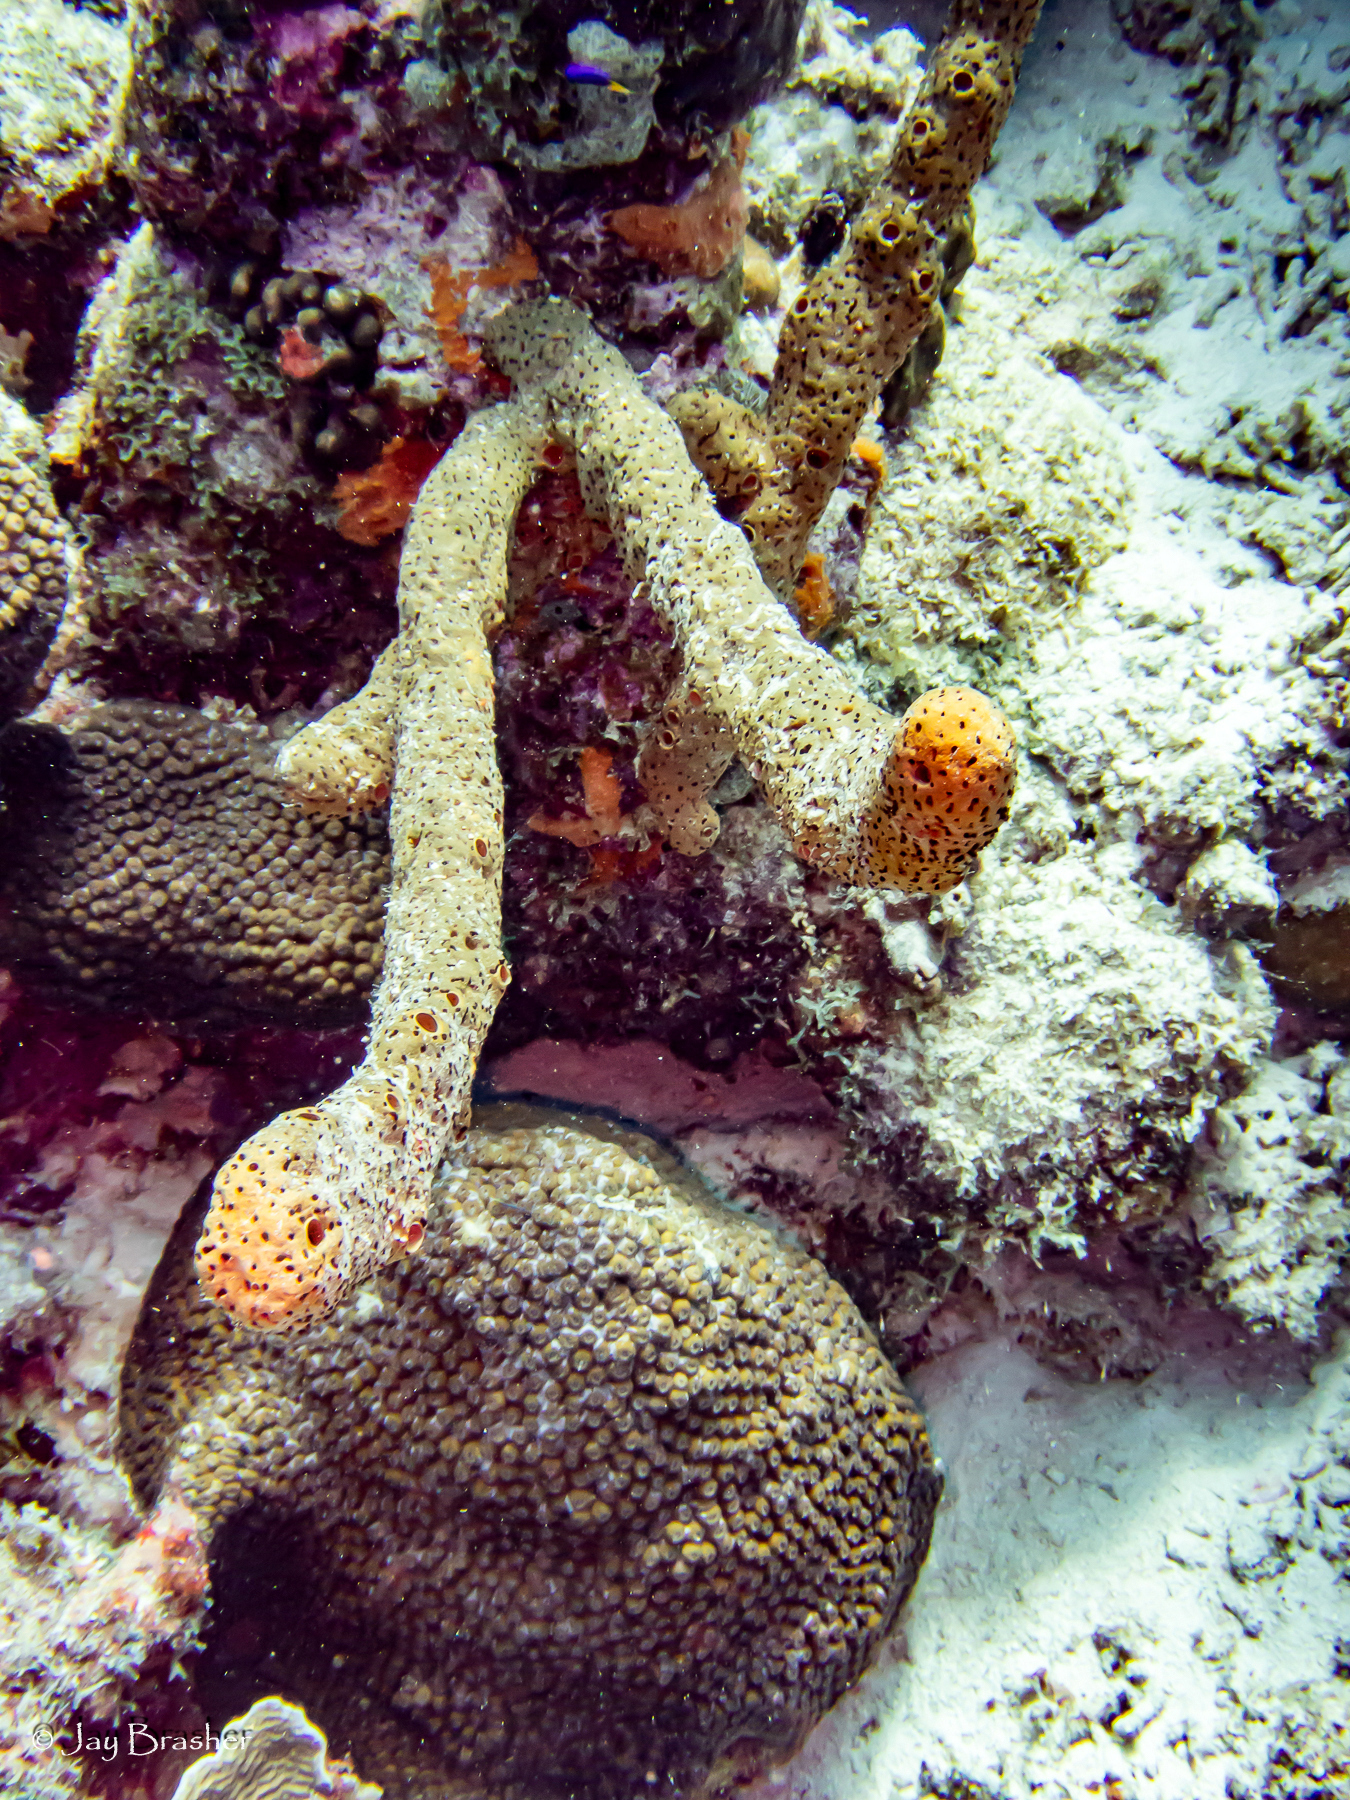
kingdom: Animalia
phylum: Porifera
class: Demospongiae
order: Agelasida
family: Agelasidae
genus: Agelas
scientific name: Agelas conifera
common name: Brown tube sponge
